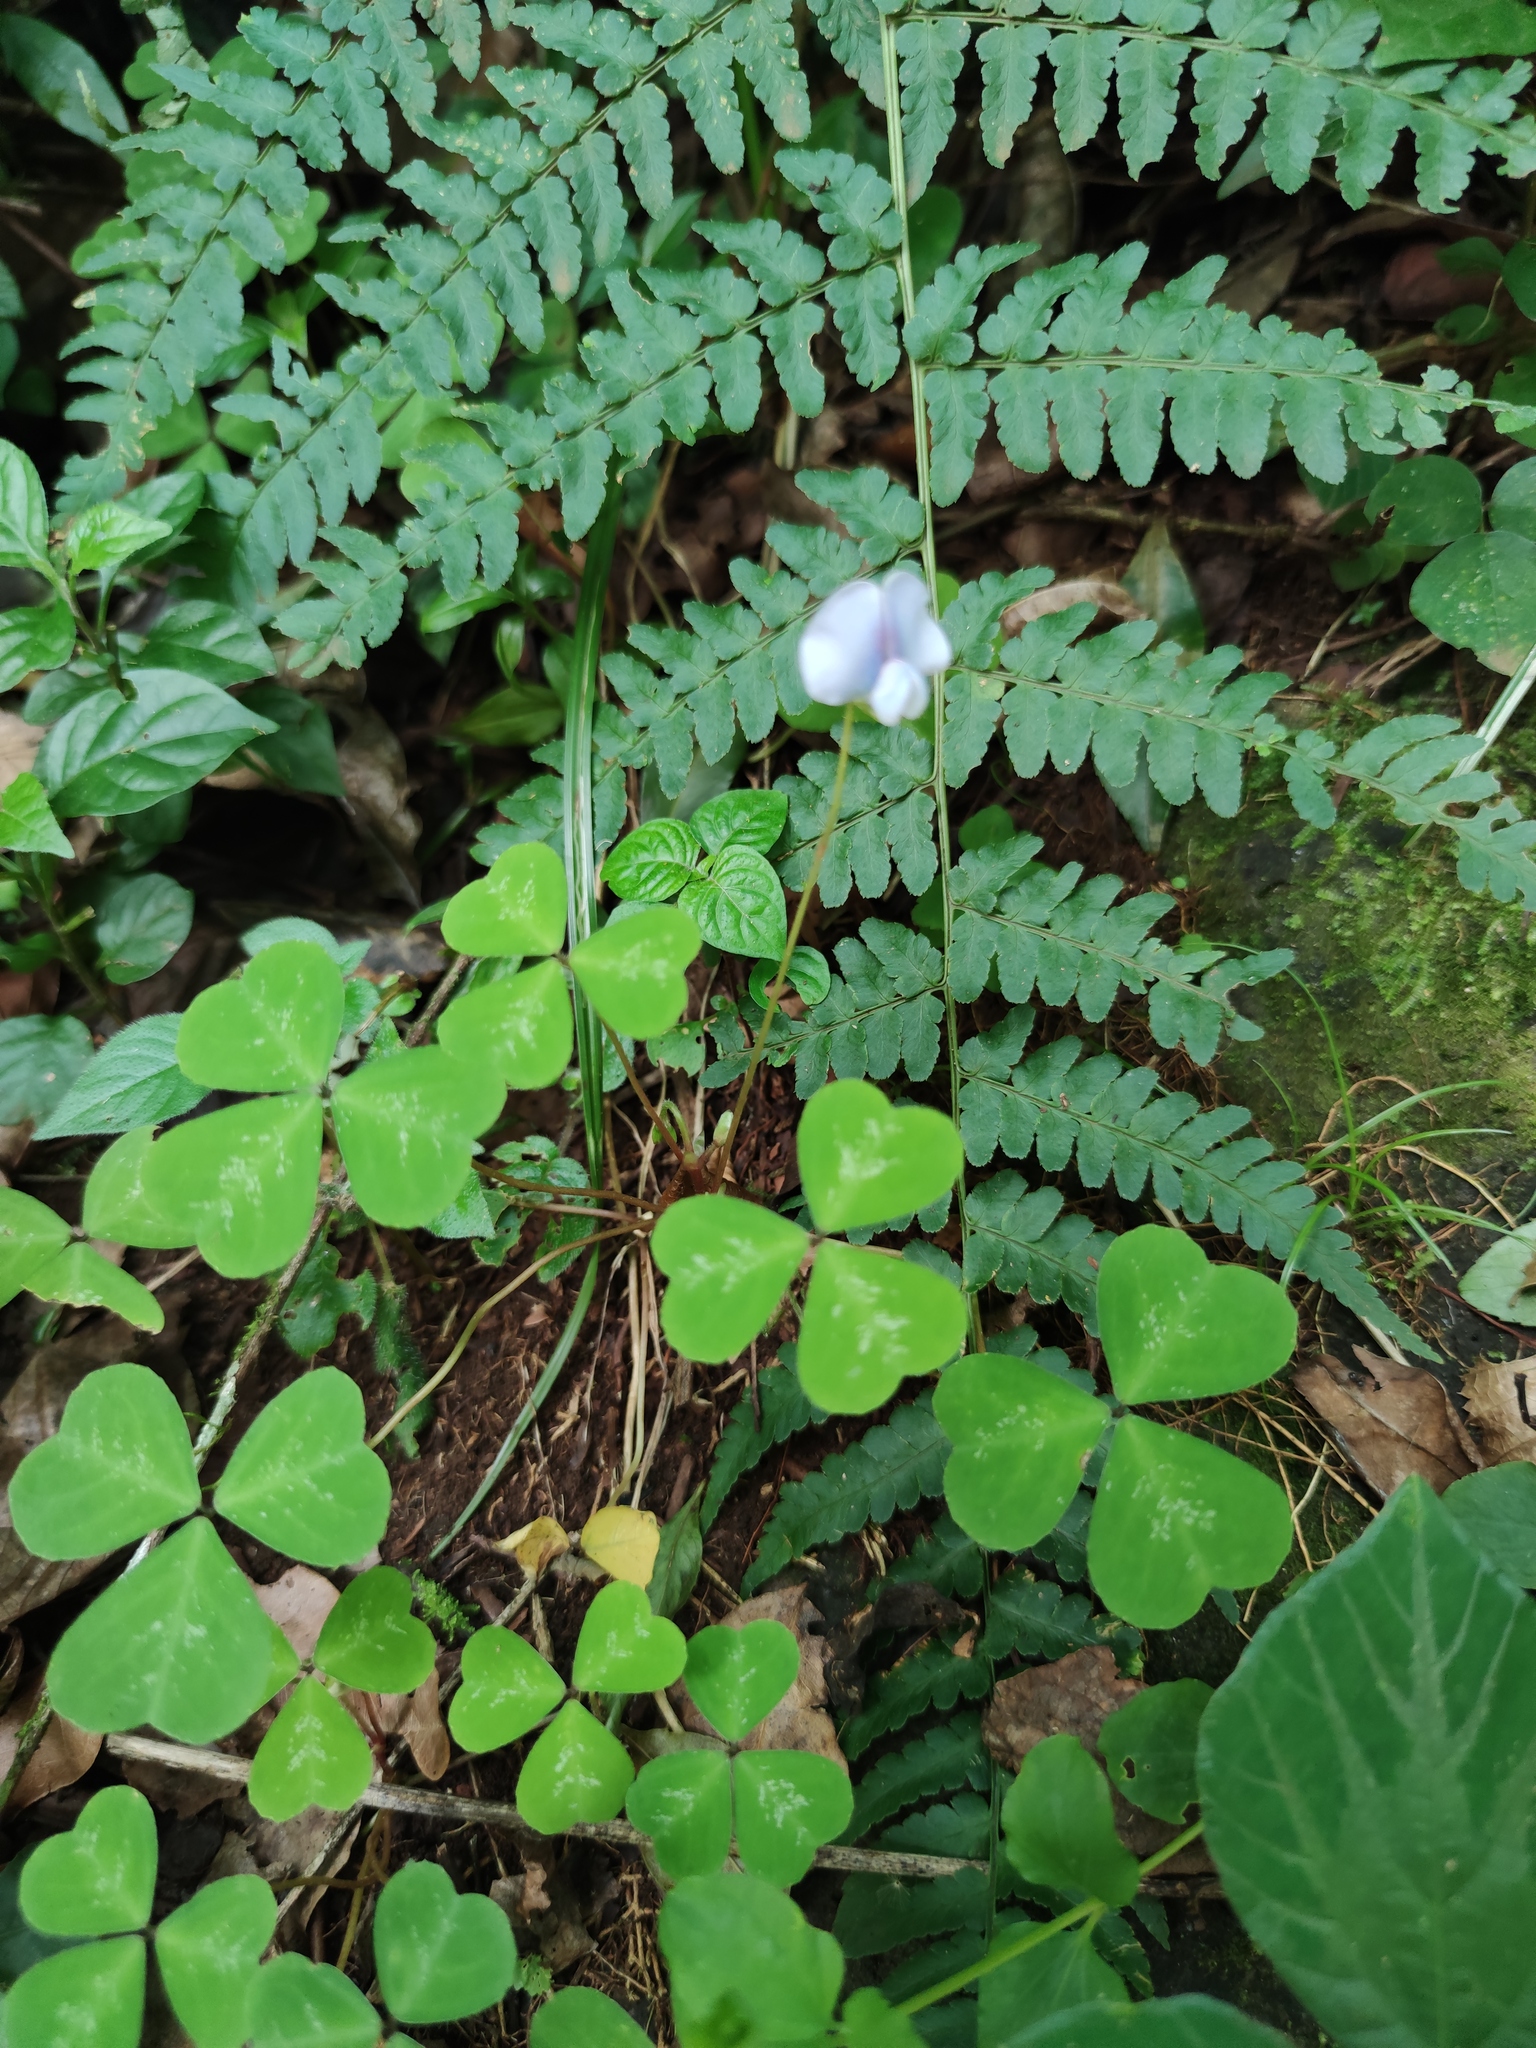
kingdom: Plantae
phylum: Tracheophyta
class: Magnoliopsida
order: Fabales
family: Fabaceae
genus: Parochetus
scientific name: Parochetus africanus
